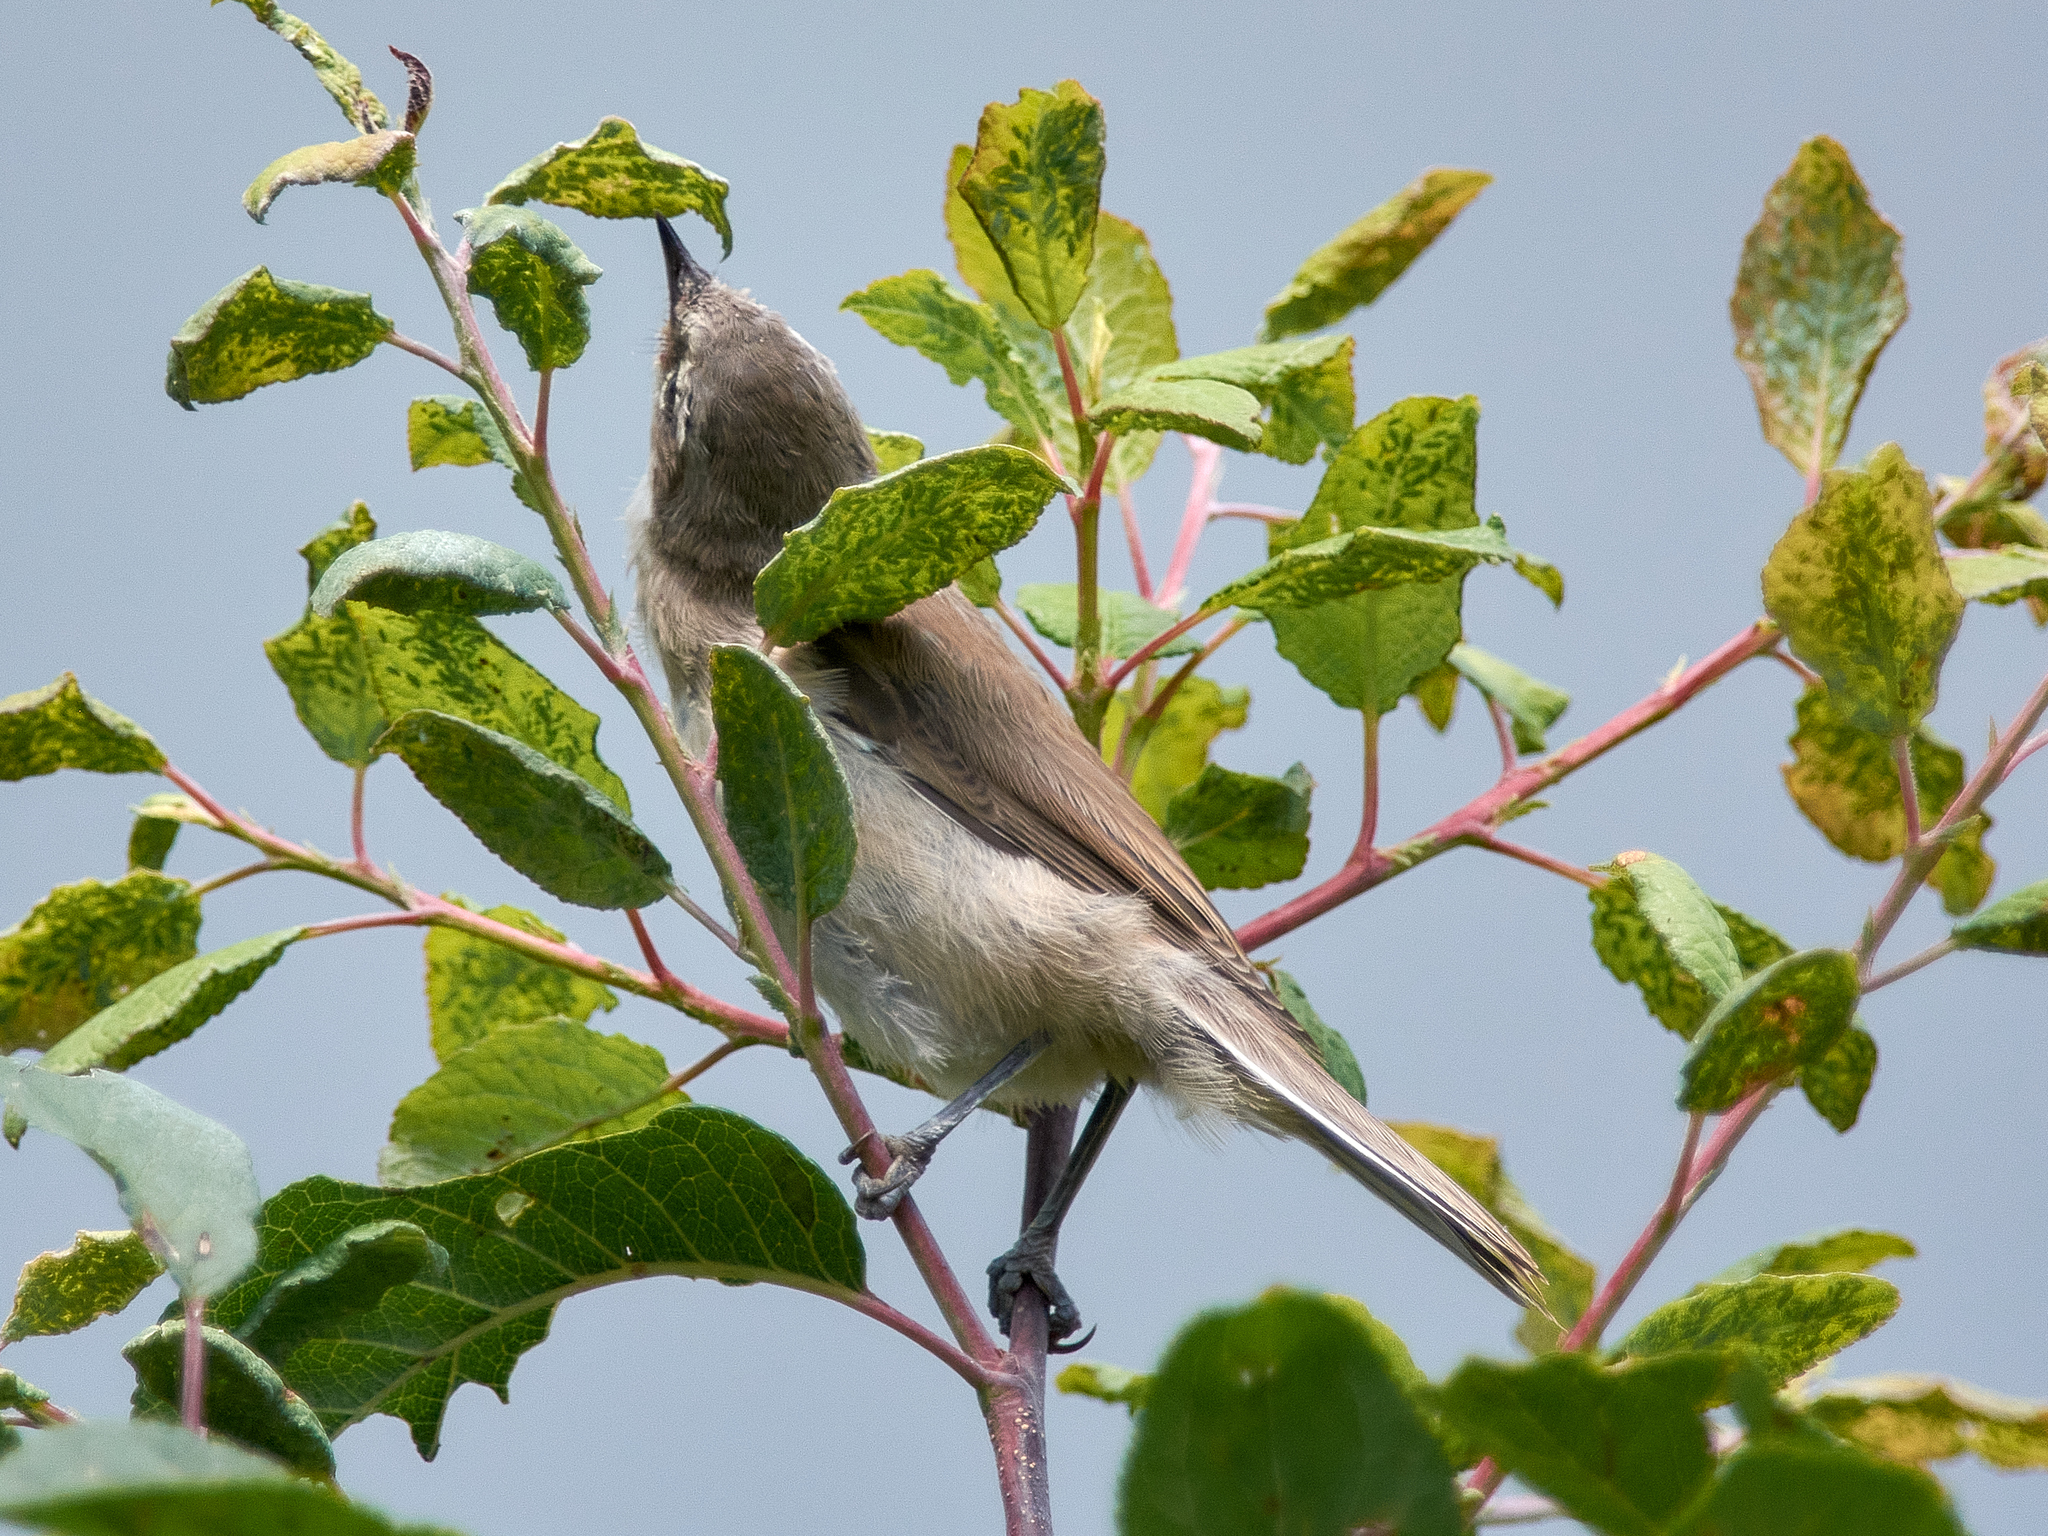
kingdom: Animalia
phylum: Chordata
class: Aves
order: Passeriformes
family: Sylviidae
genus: Sylvia
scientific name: Sylvia curruca
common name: Lesser whitethroat
